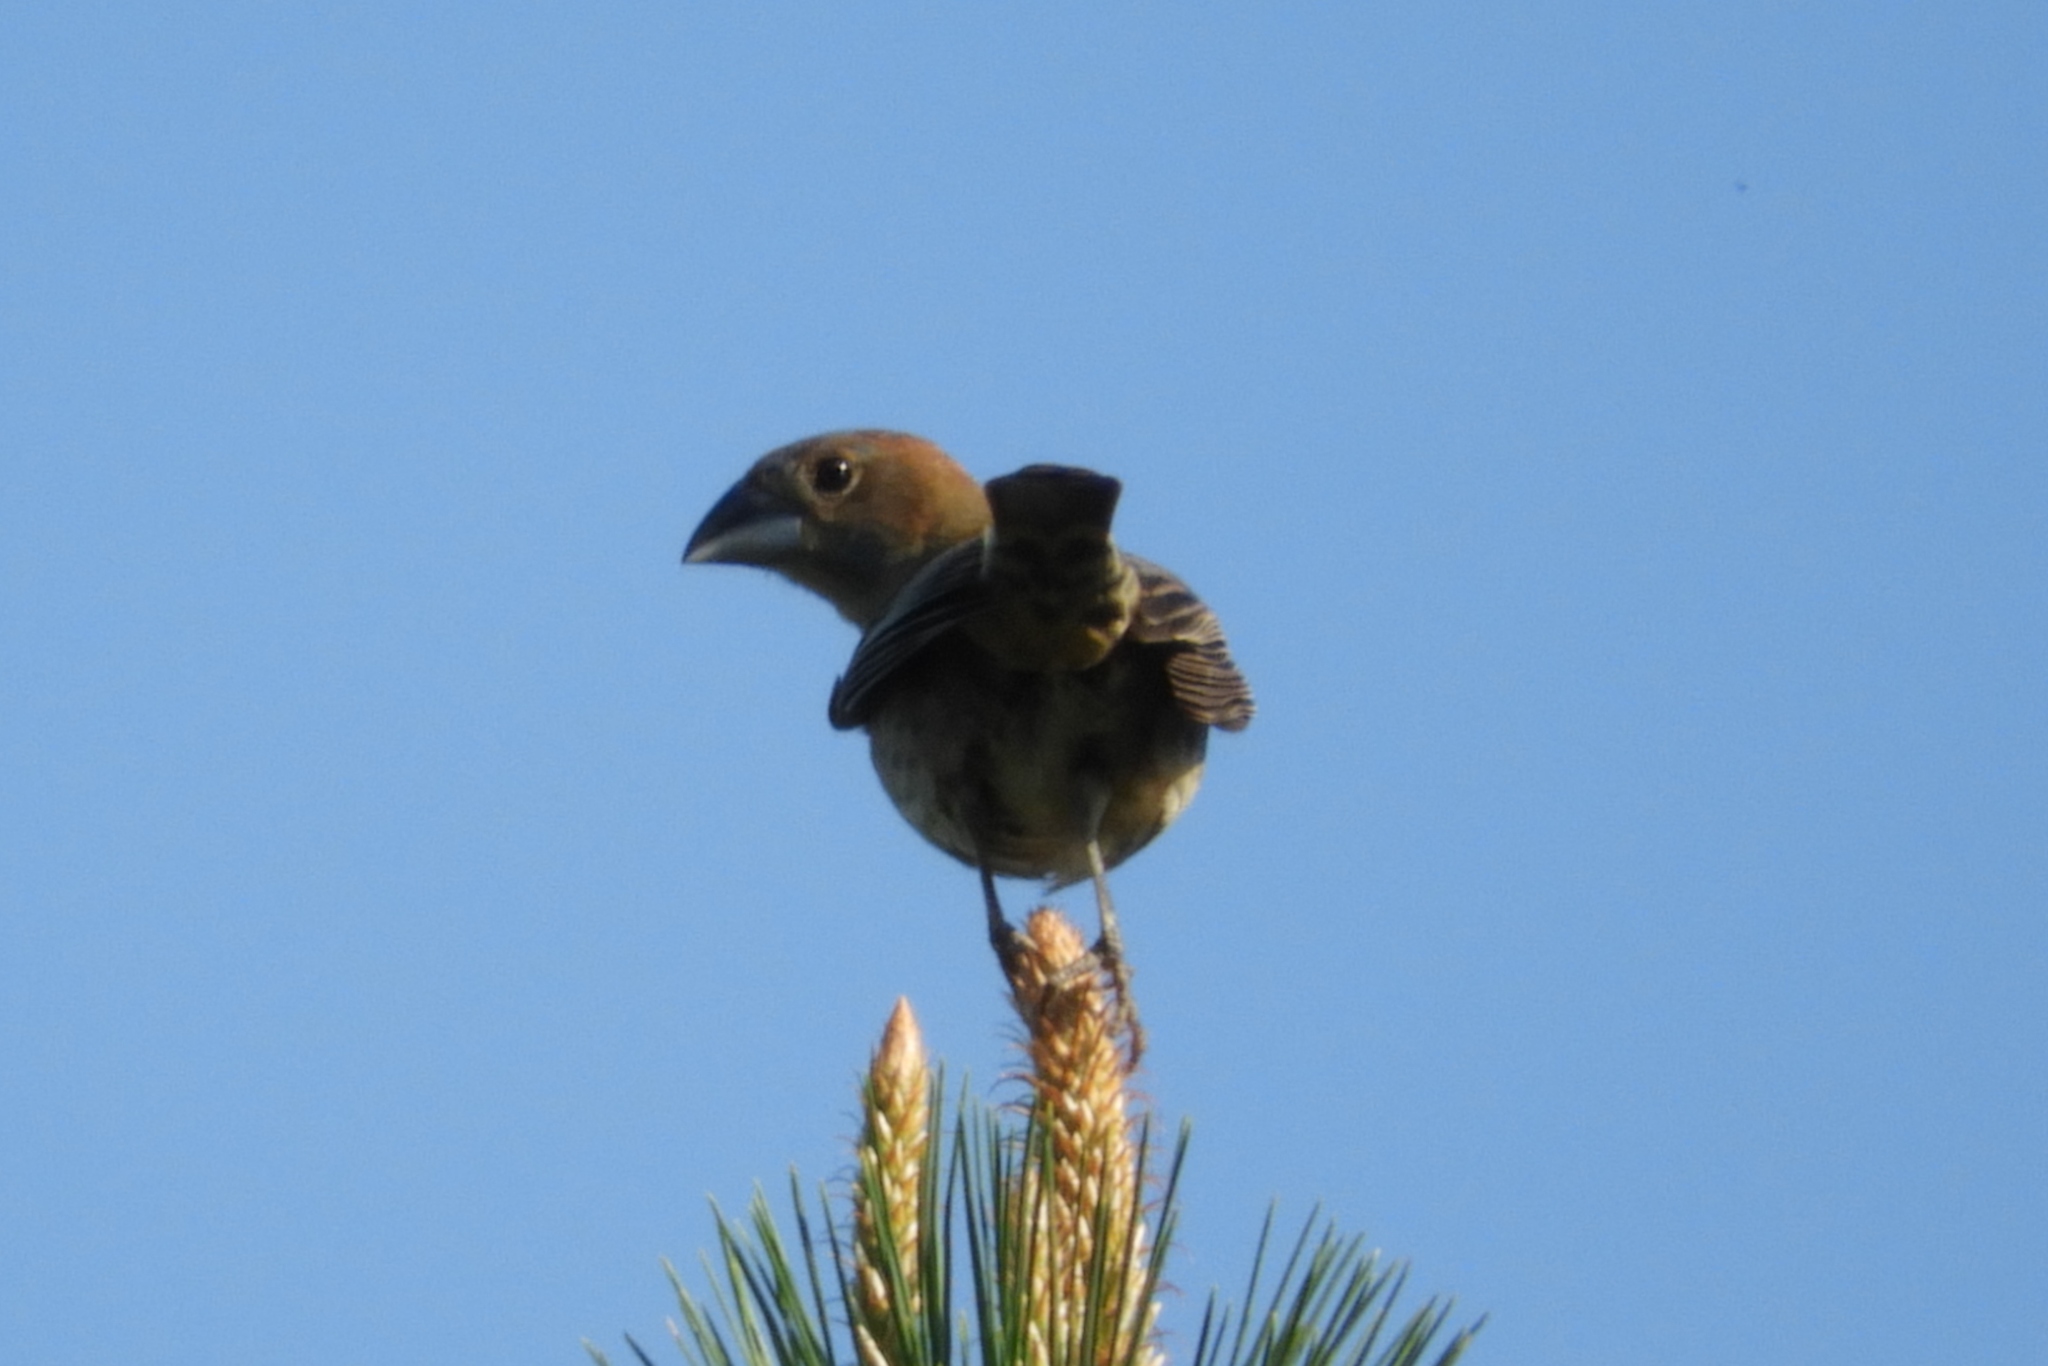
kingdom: Animalia
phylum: Chordata
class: Aves
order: Passeriformes
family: Cardinalidae
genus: Passerina
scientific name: Passerina caerulea
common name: Blue grosbeak
